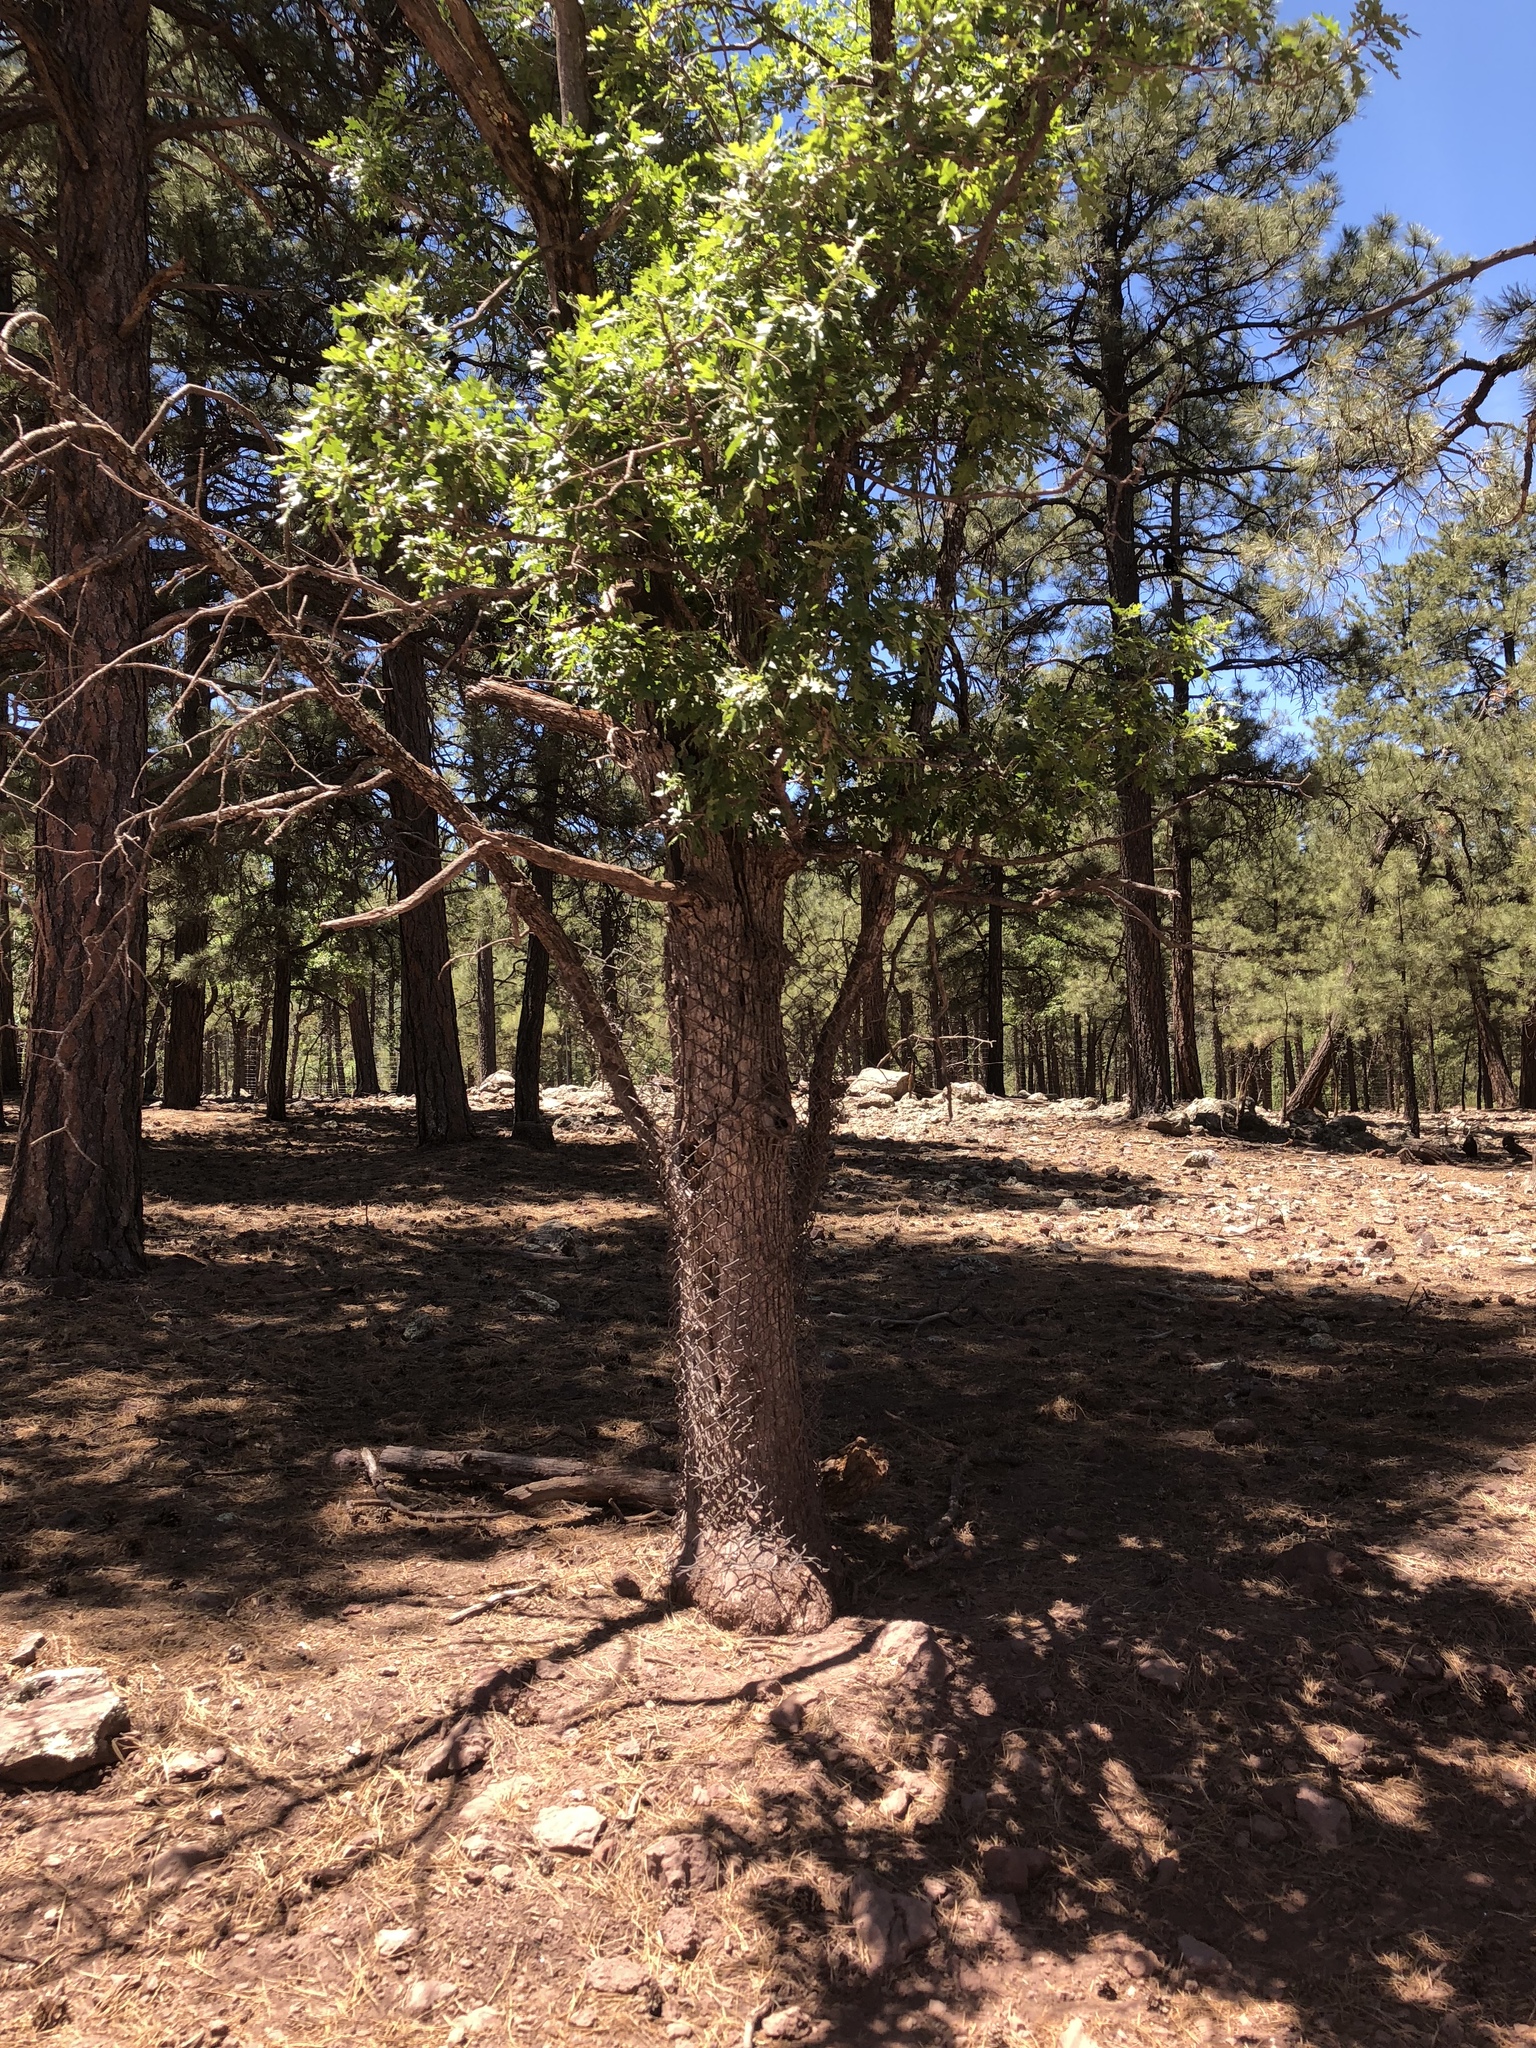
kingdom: Plantae
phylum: Tracheophyta
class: Magnoliopsida
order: Fagales
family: Fagaceae
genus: Quercus
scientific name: Quercus gambelii
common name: Gambel oak
